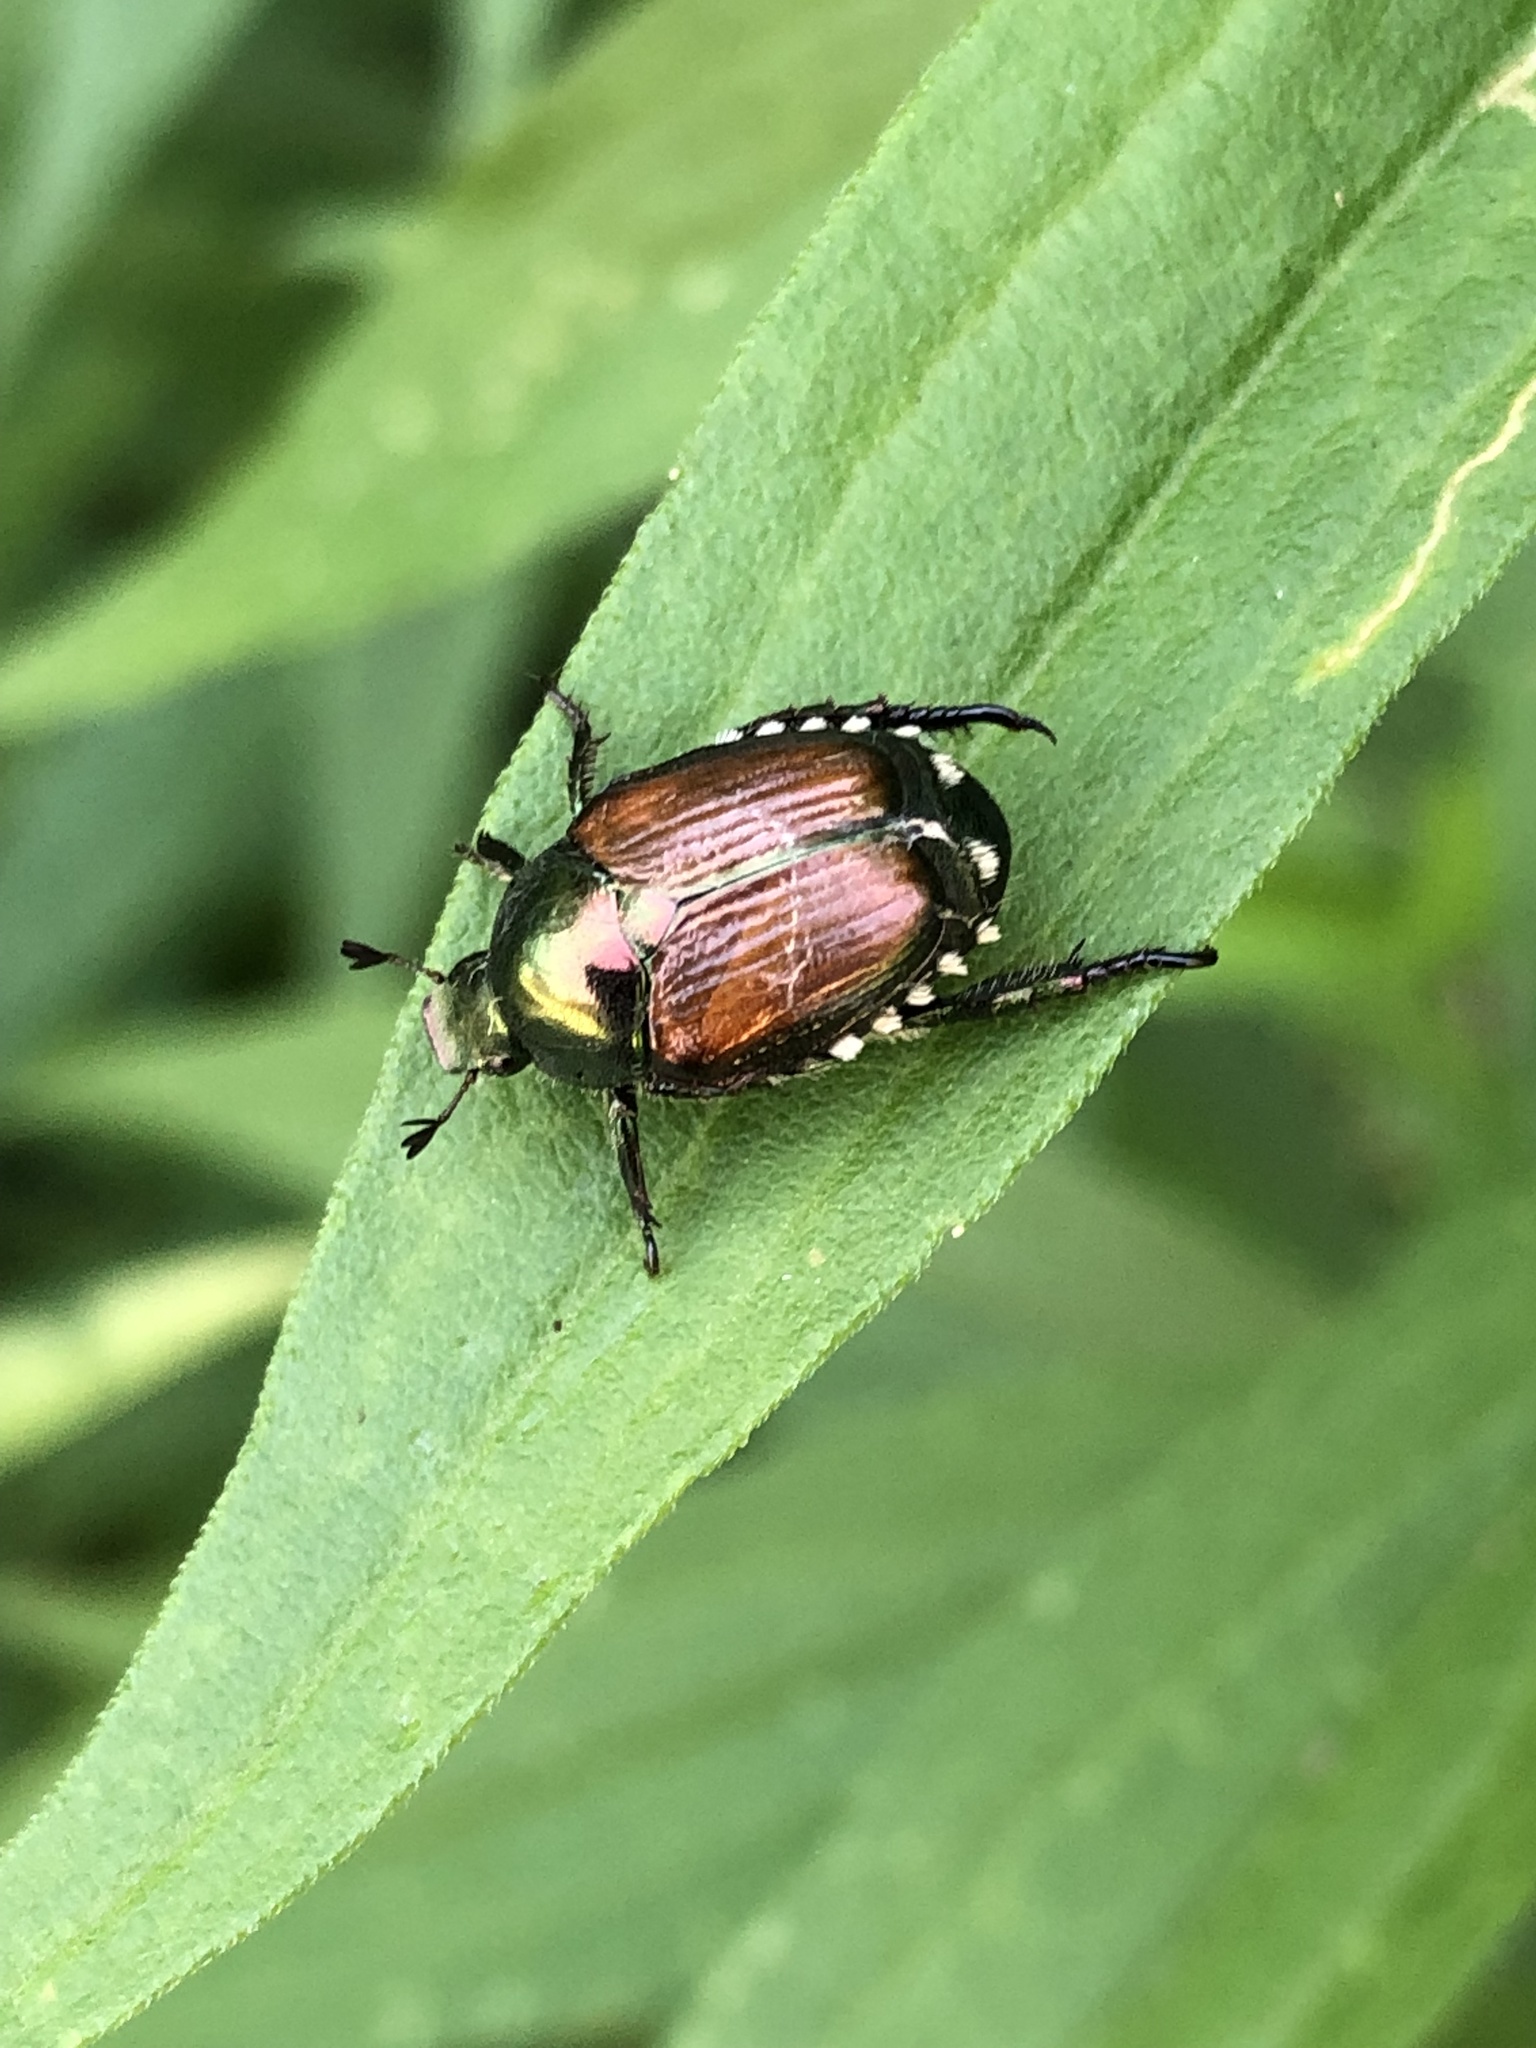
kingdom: Animalia
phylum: Arthropoda
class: Insecta
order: Coleoptera
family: Scarabaeidae
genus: Popillia
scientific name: Popillia japonica
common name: Japanese beetle
